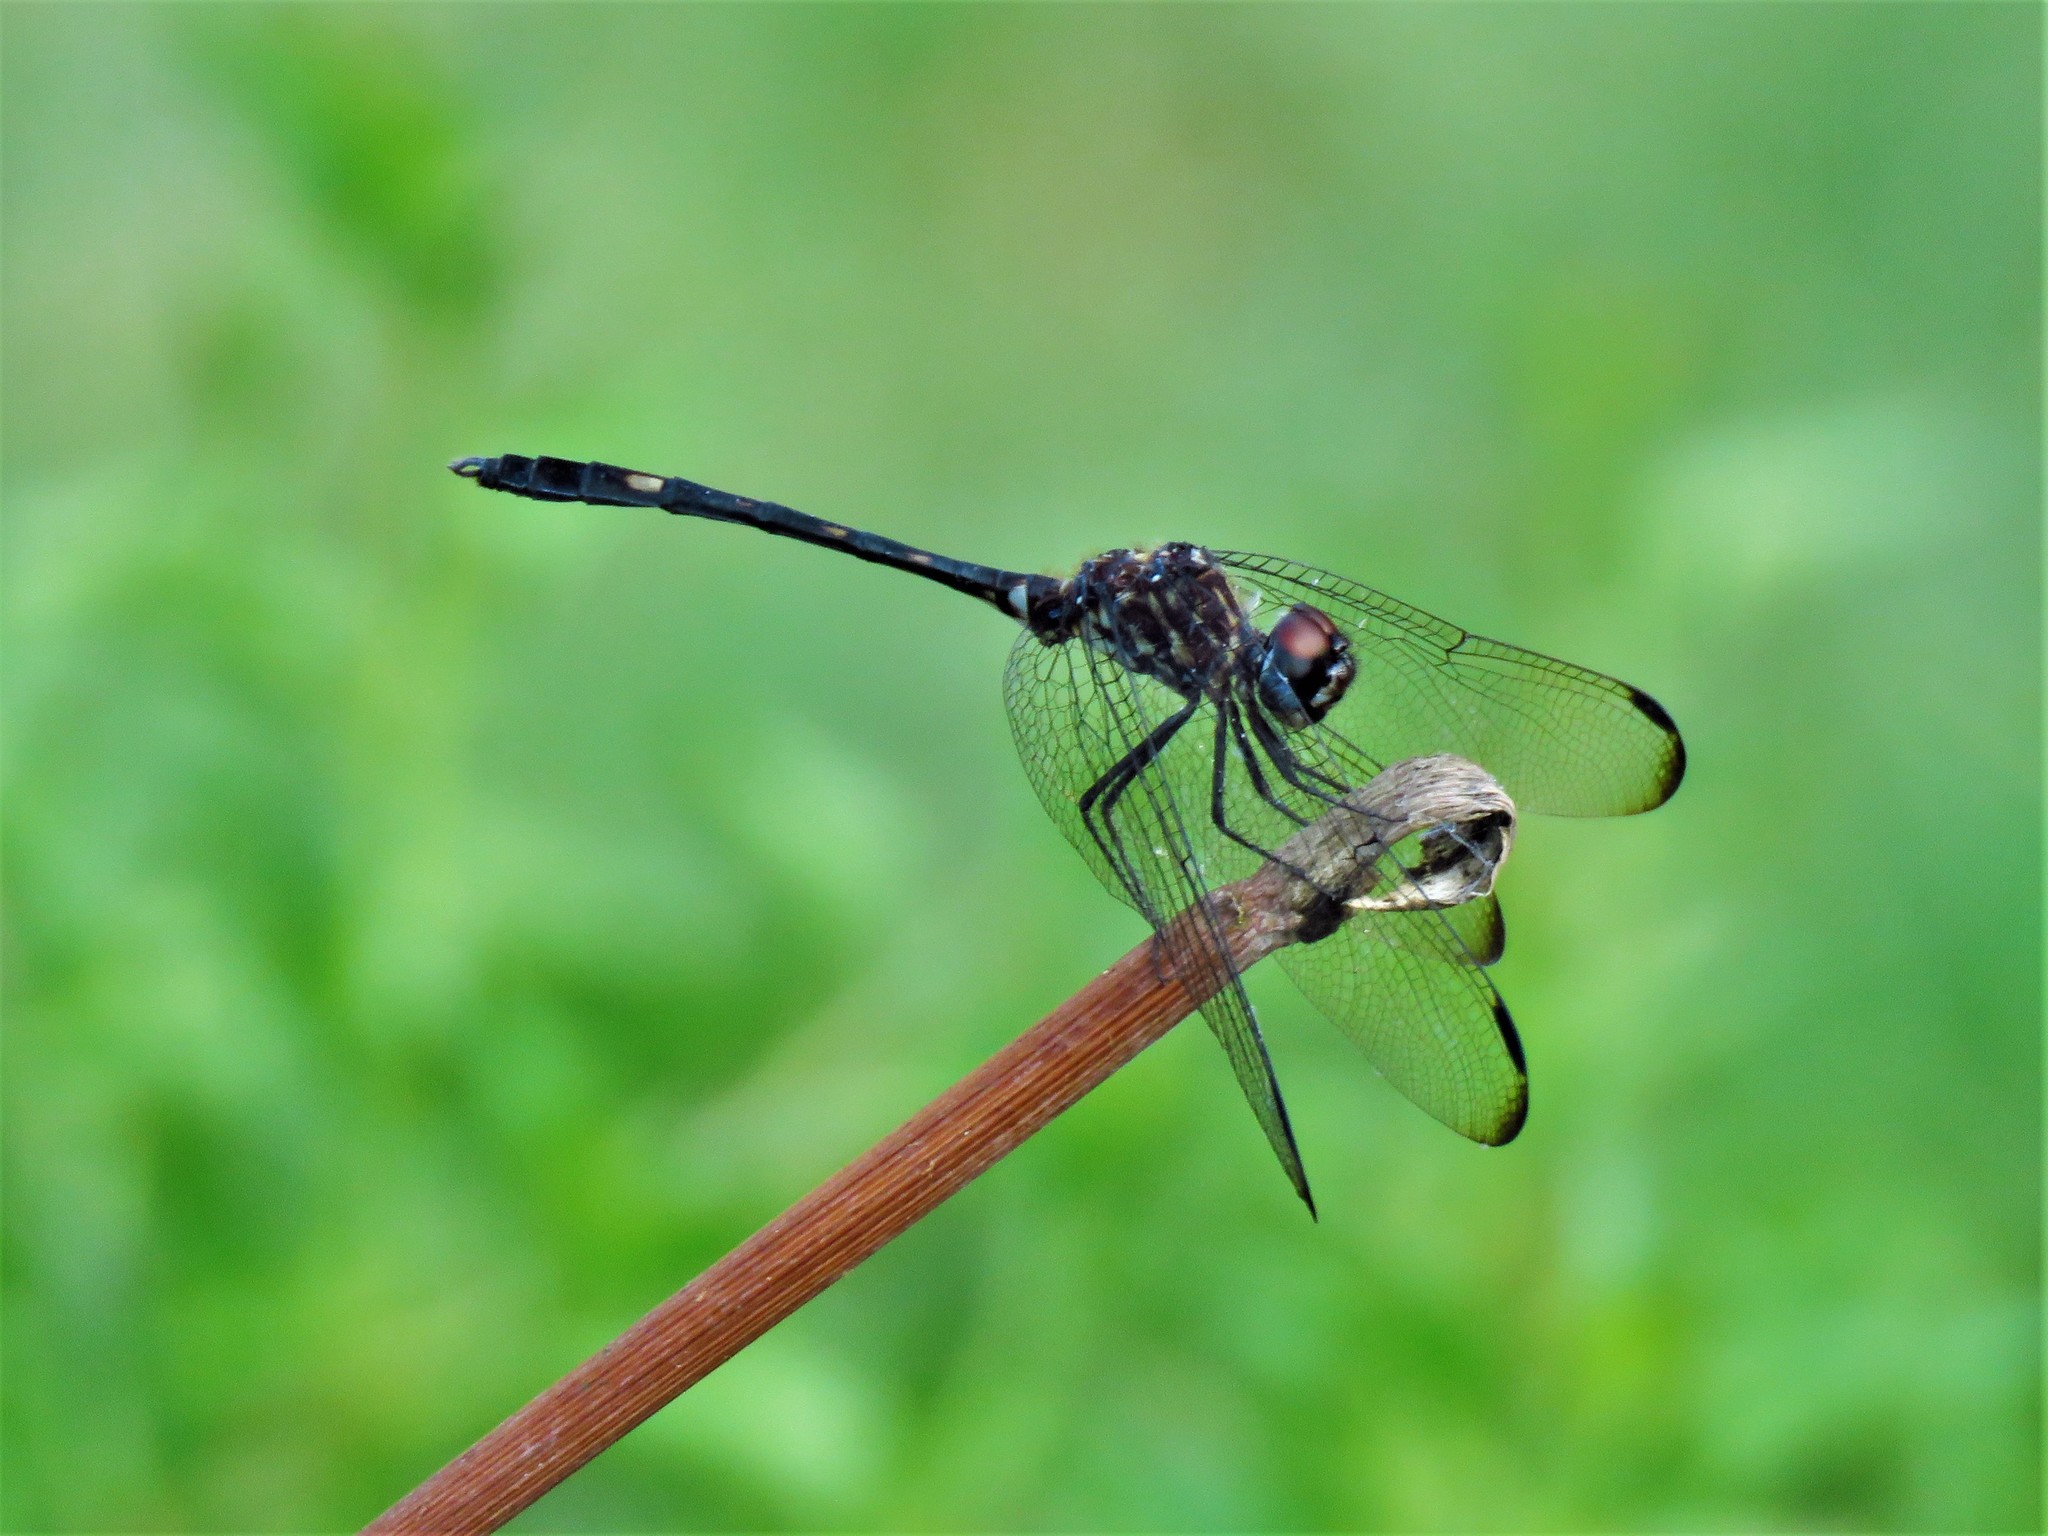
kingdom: Animalia
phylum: Arthropoda
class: Insecta
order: Odonata
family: Libellulidae
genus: Dythemis
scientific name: Dythemis nigrescens
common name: Black setwing
